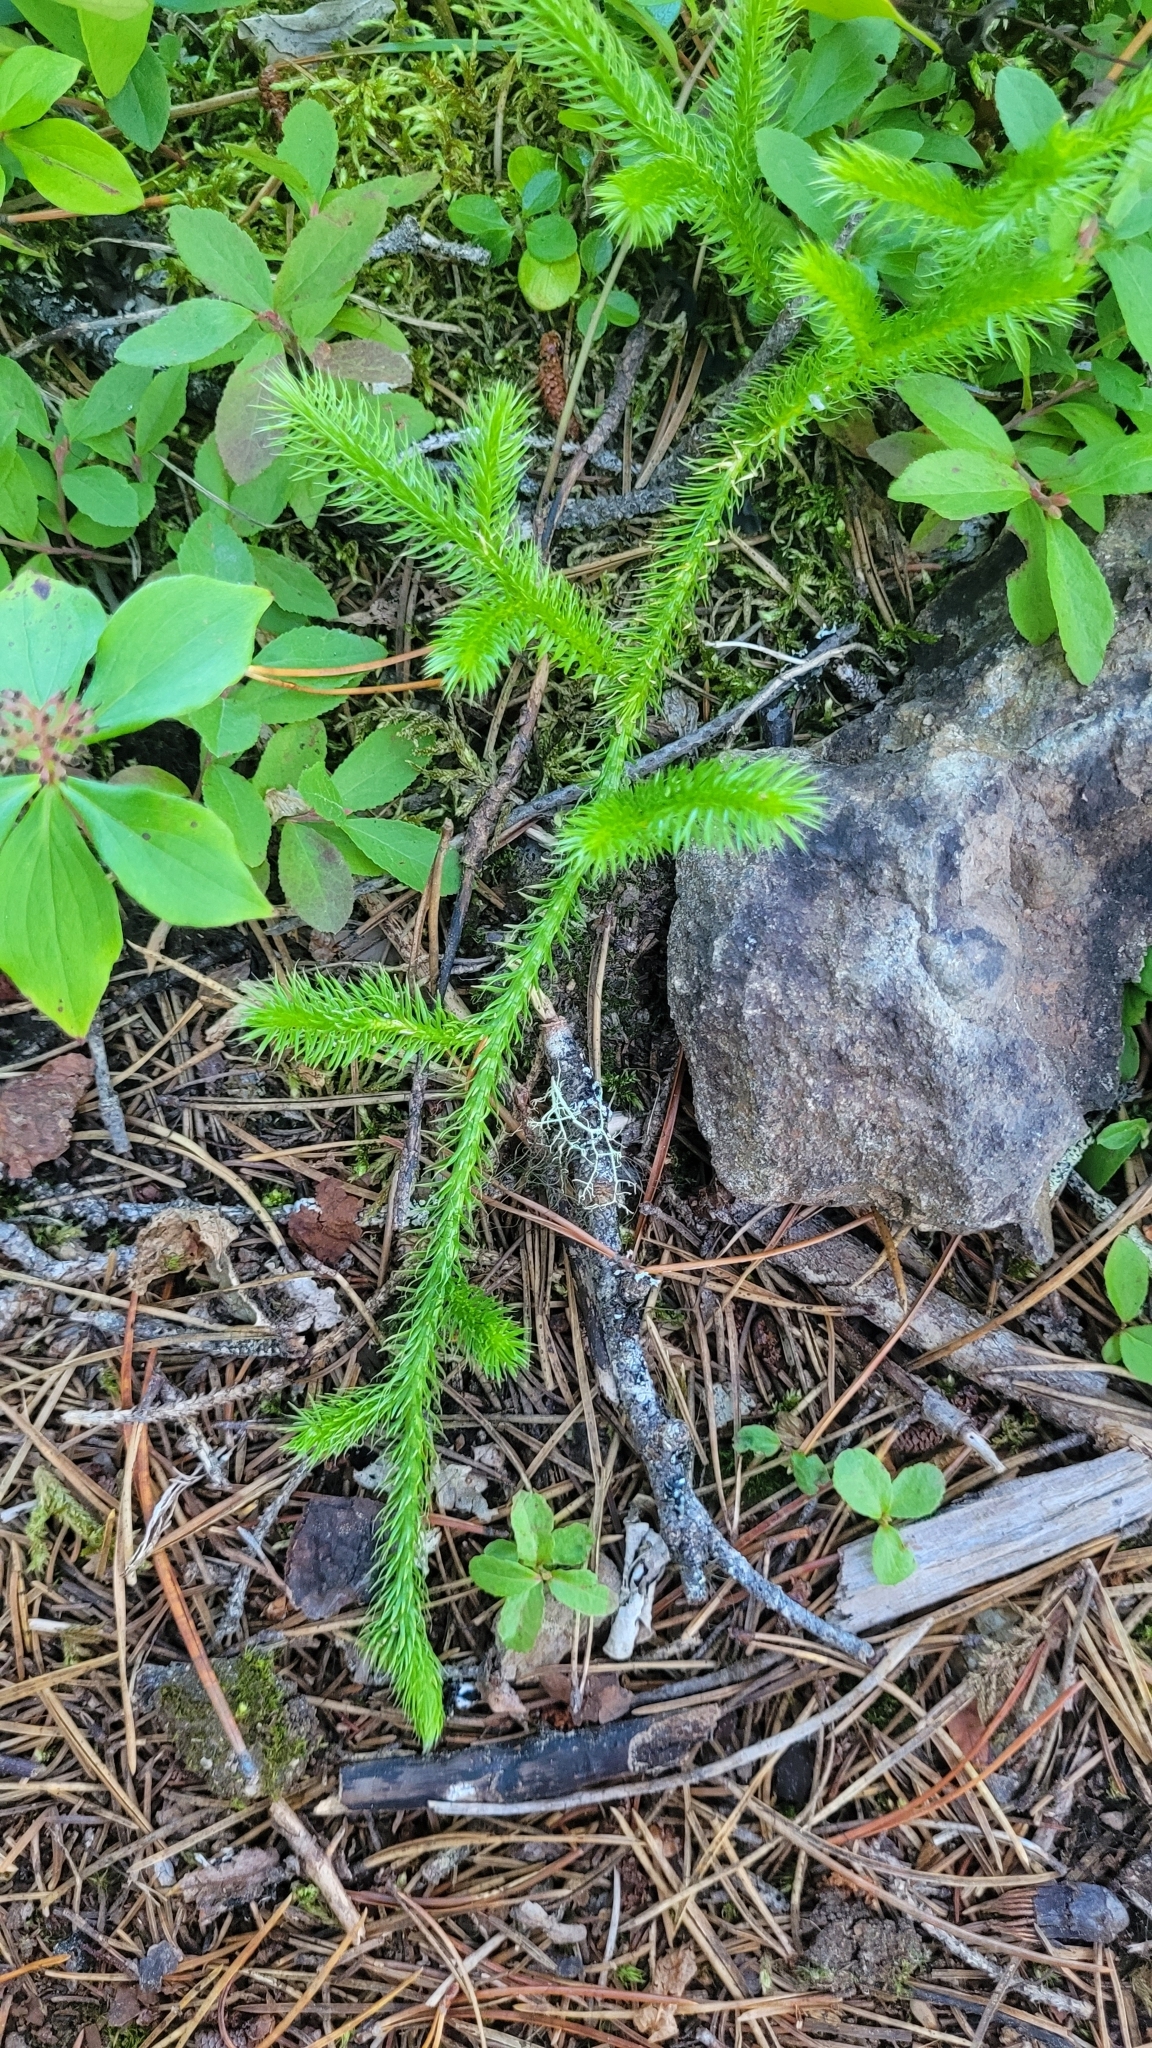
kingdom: Plantae
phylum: Tracheophyta
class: Lycopodiopsida
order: Lycopodiales
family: Lycopodiaceae
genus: Lycopodium
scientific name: Lycopodium clavatum
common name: Stag's-horn clubmoss
